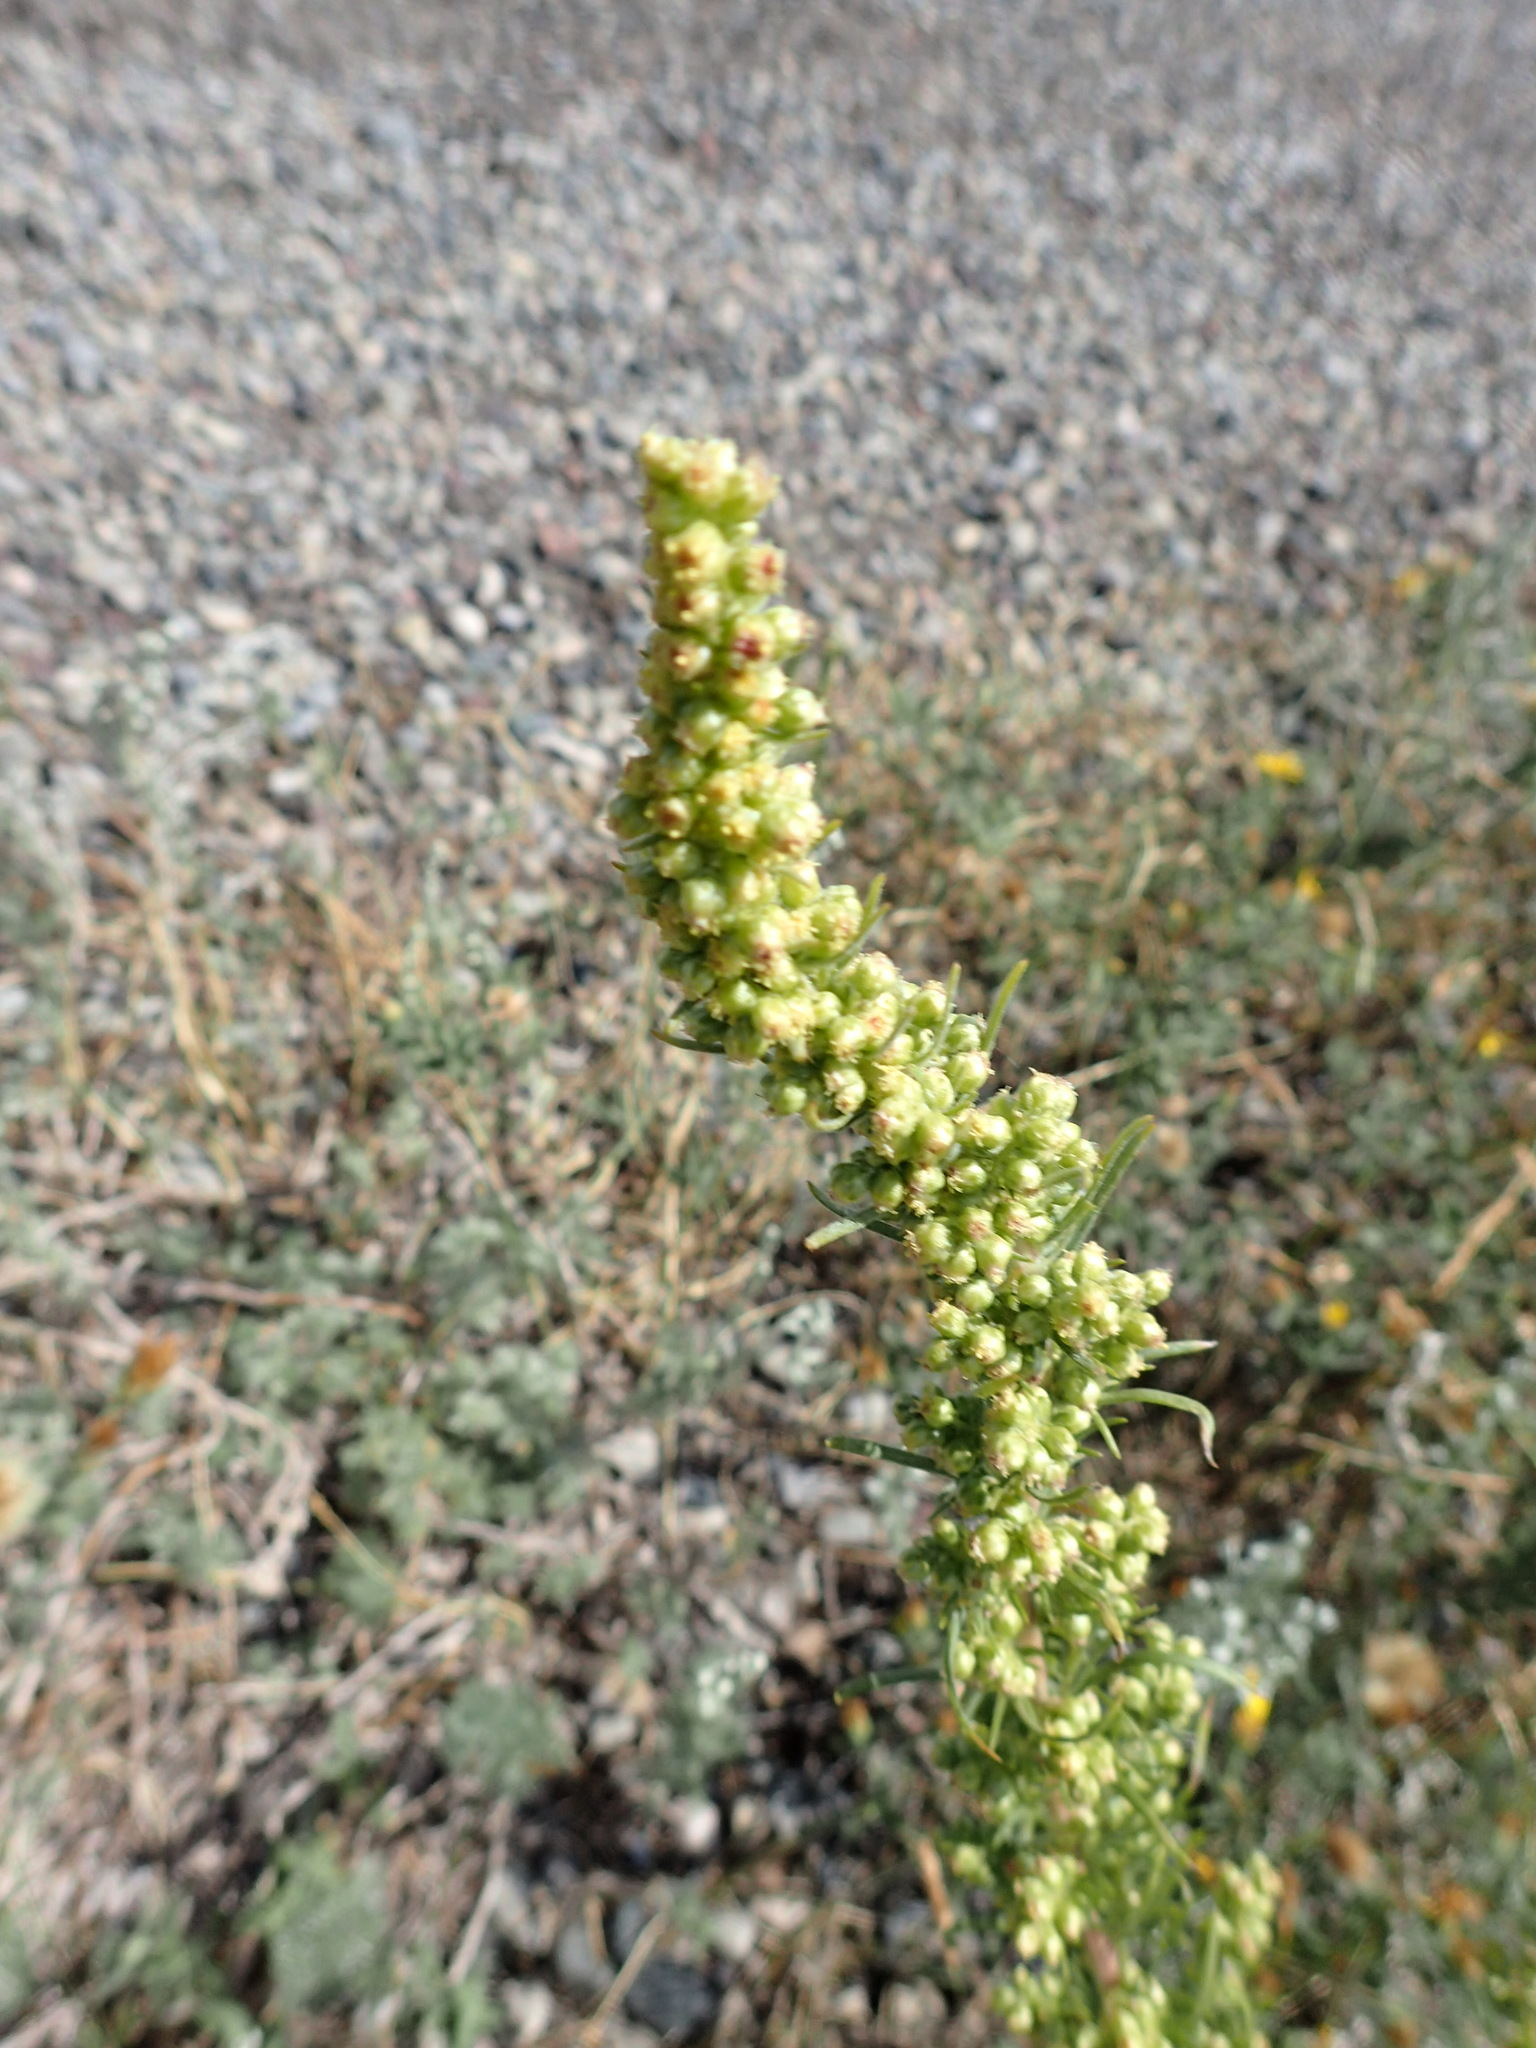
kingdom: Plantae
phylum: Tracheophyta
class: Magnoliopsida
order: Asterales
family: Asteraceae
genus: Artemisia
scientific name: Artemisia campestris
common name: Field wormwood
